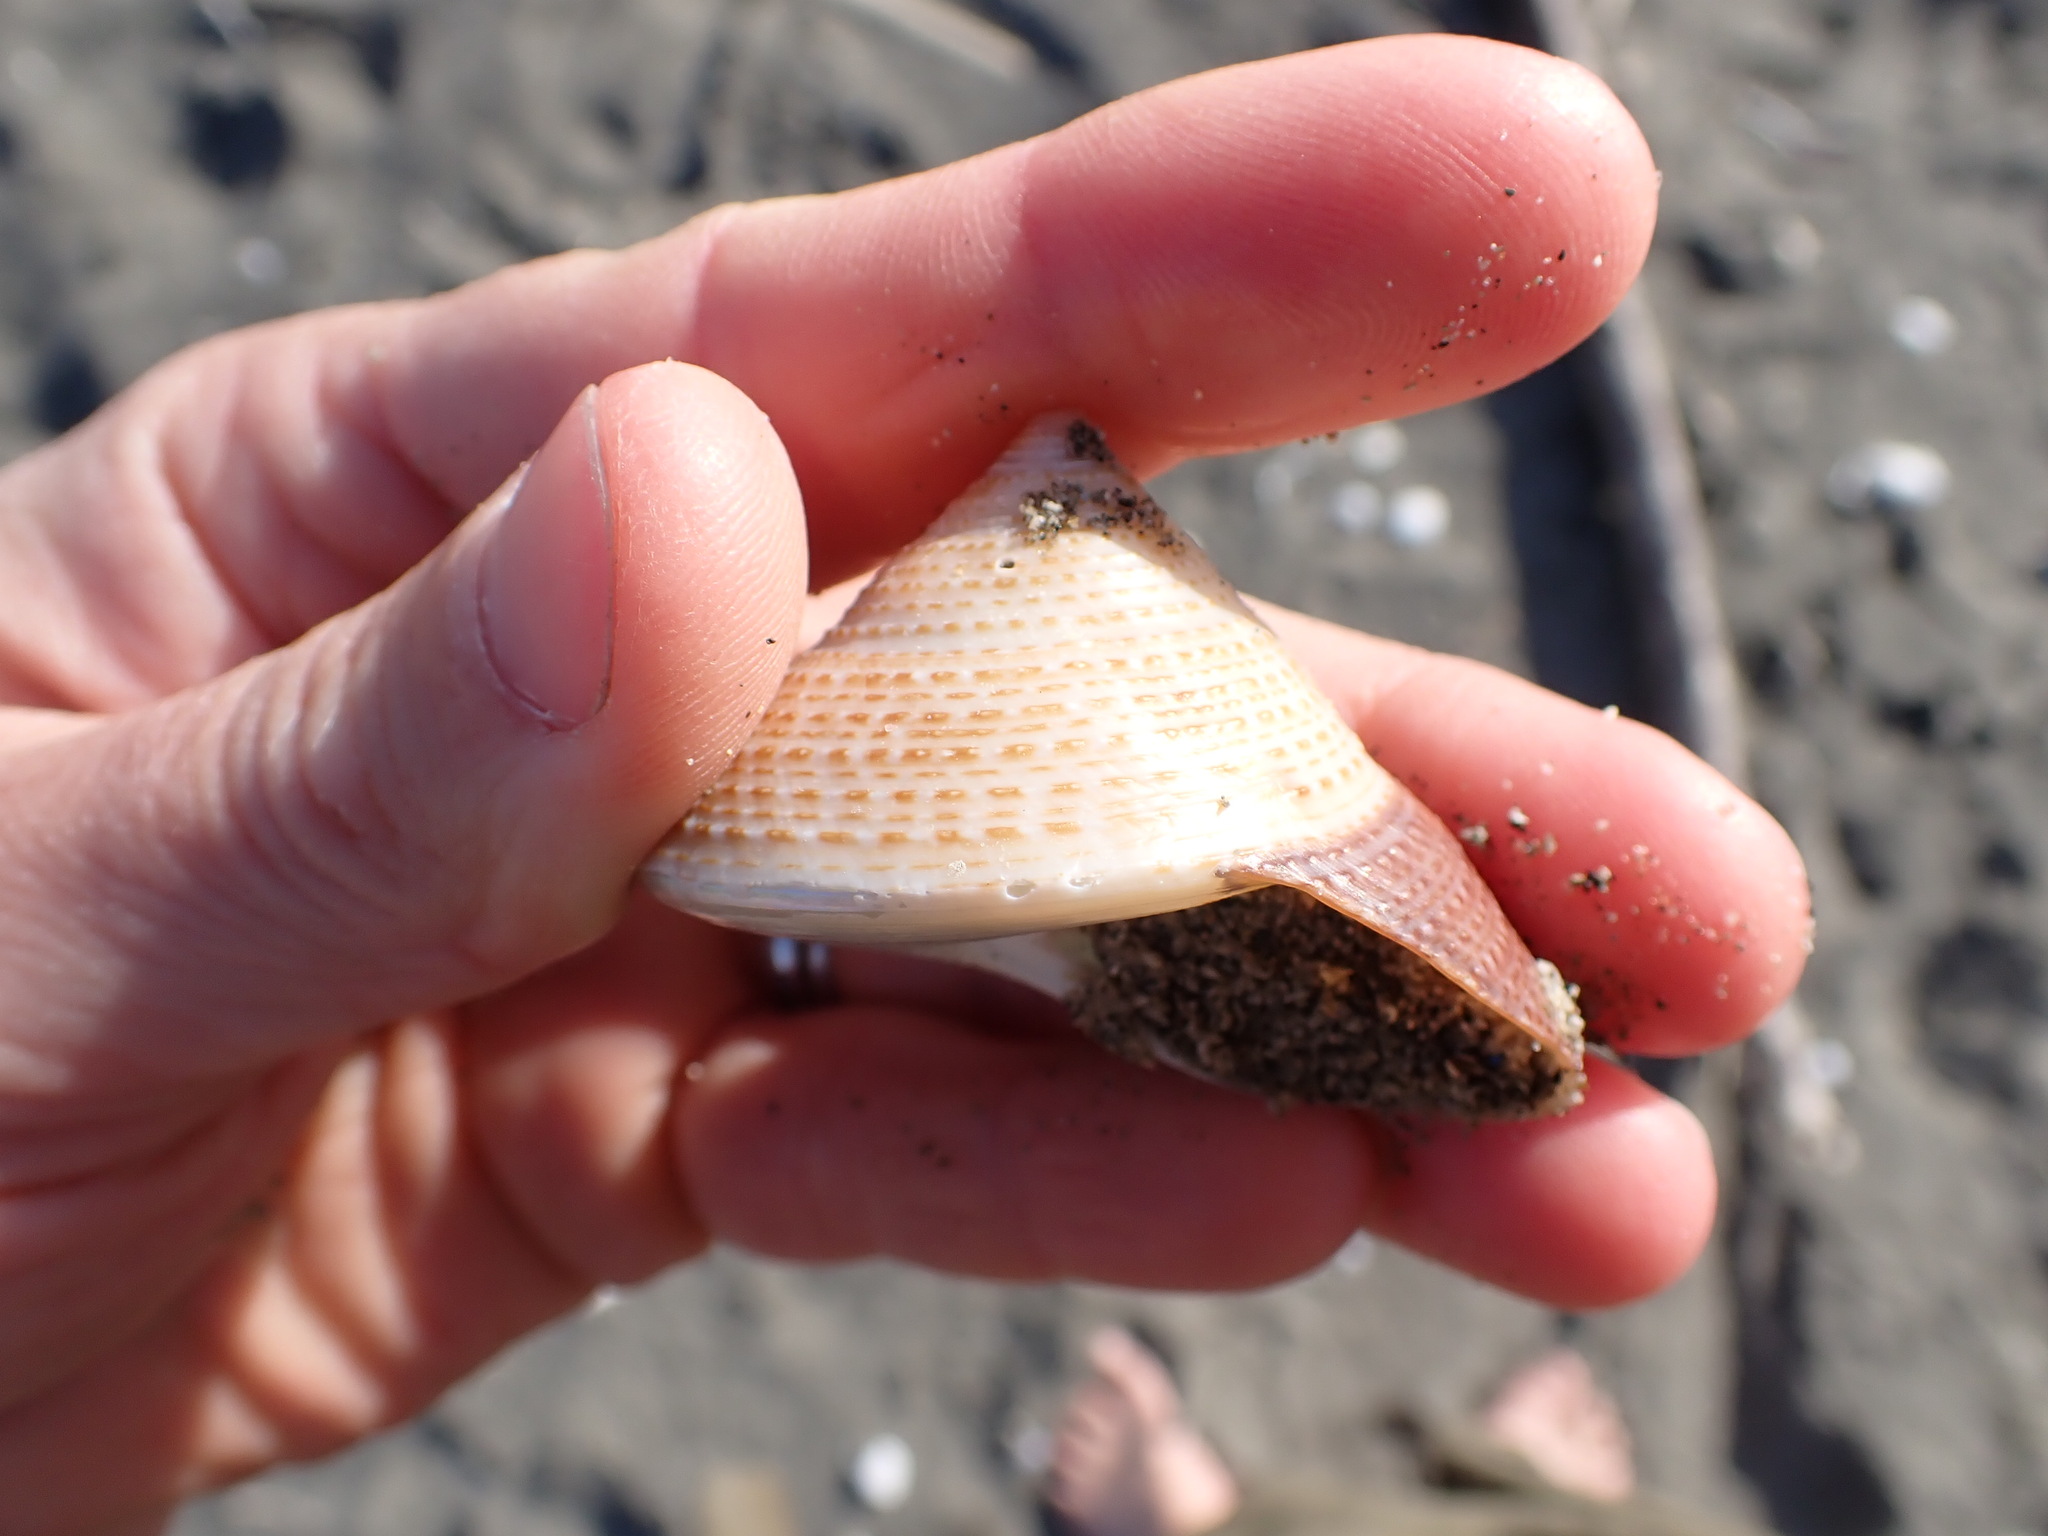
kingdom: Animalia
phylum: Mollusca
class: Gastropoda
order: Trochida
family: Calliostomatidae
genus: Maurea
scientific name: Maurea selecta
